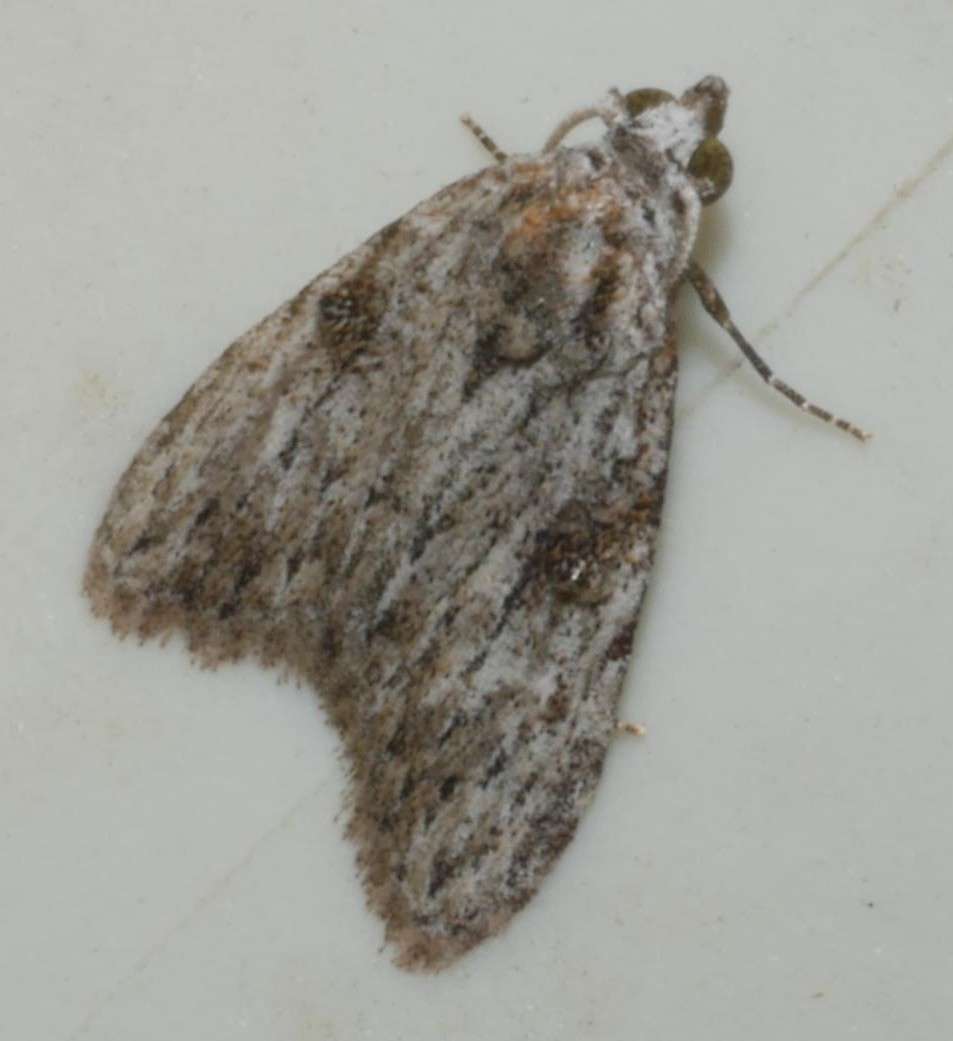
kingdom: Animalia
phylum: Arthropoda
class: Insecta
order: Lepidoptera
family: Nolidae
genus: Nola
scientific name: Nola monozona
